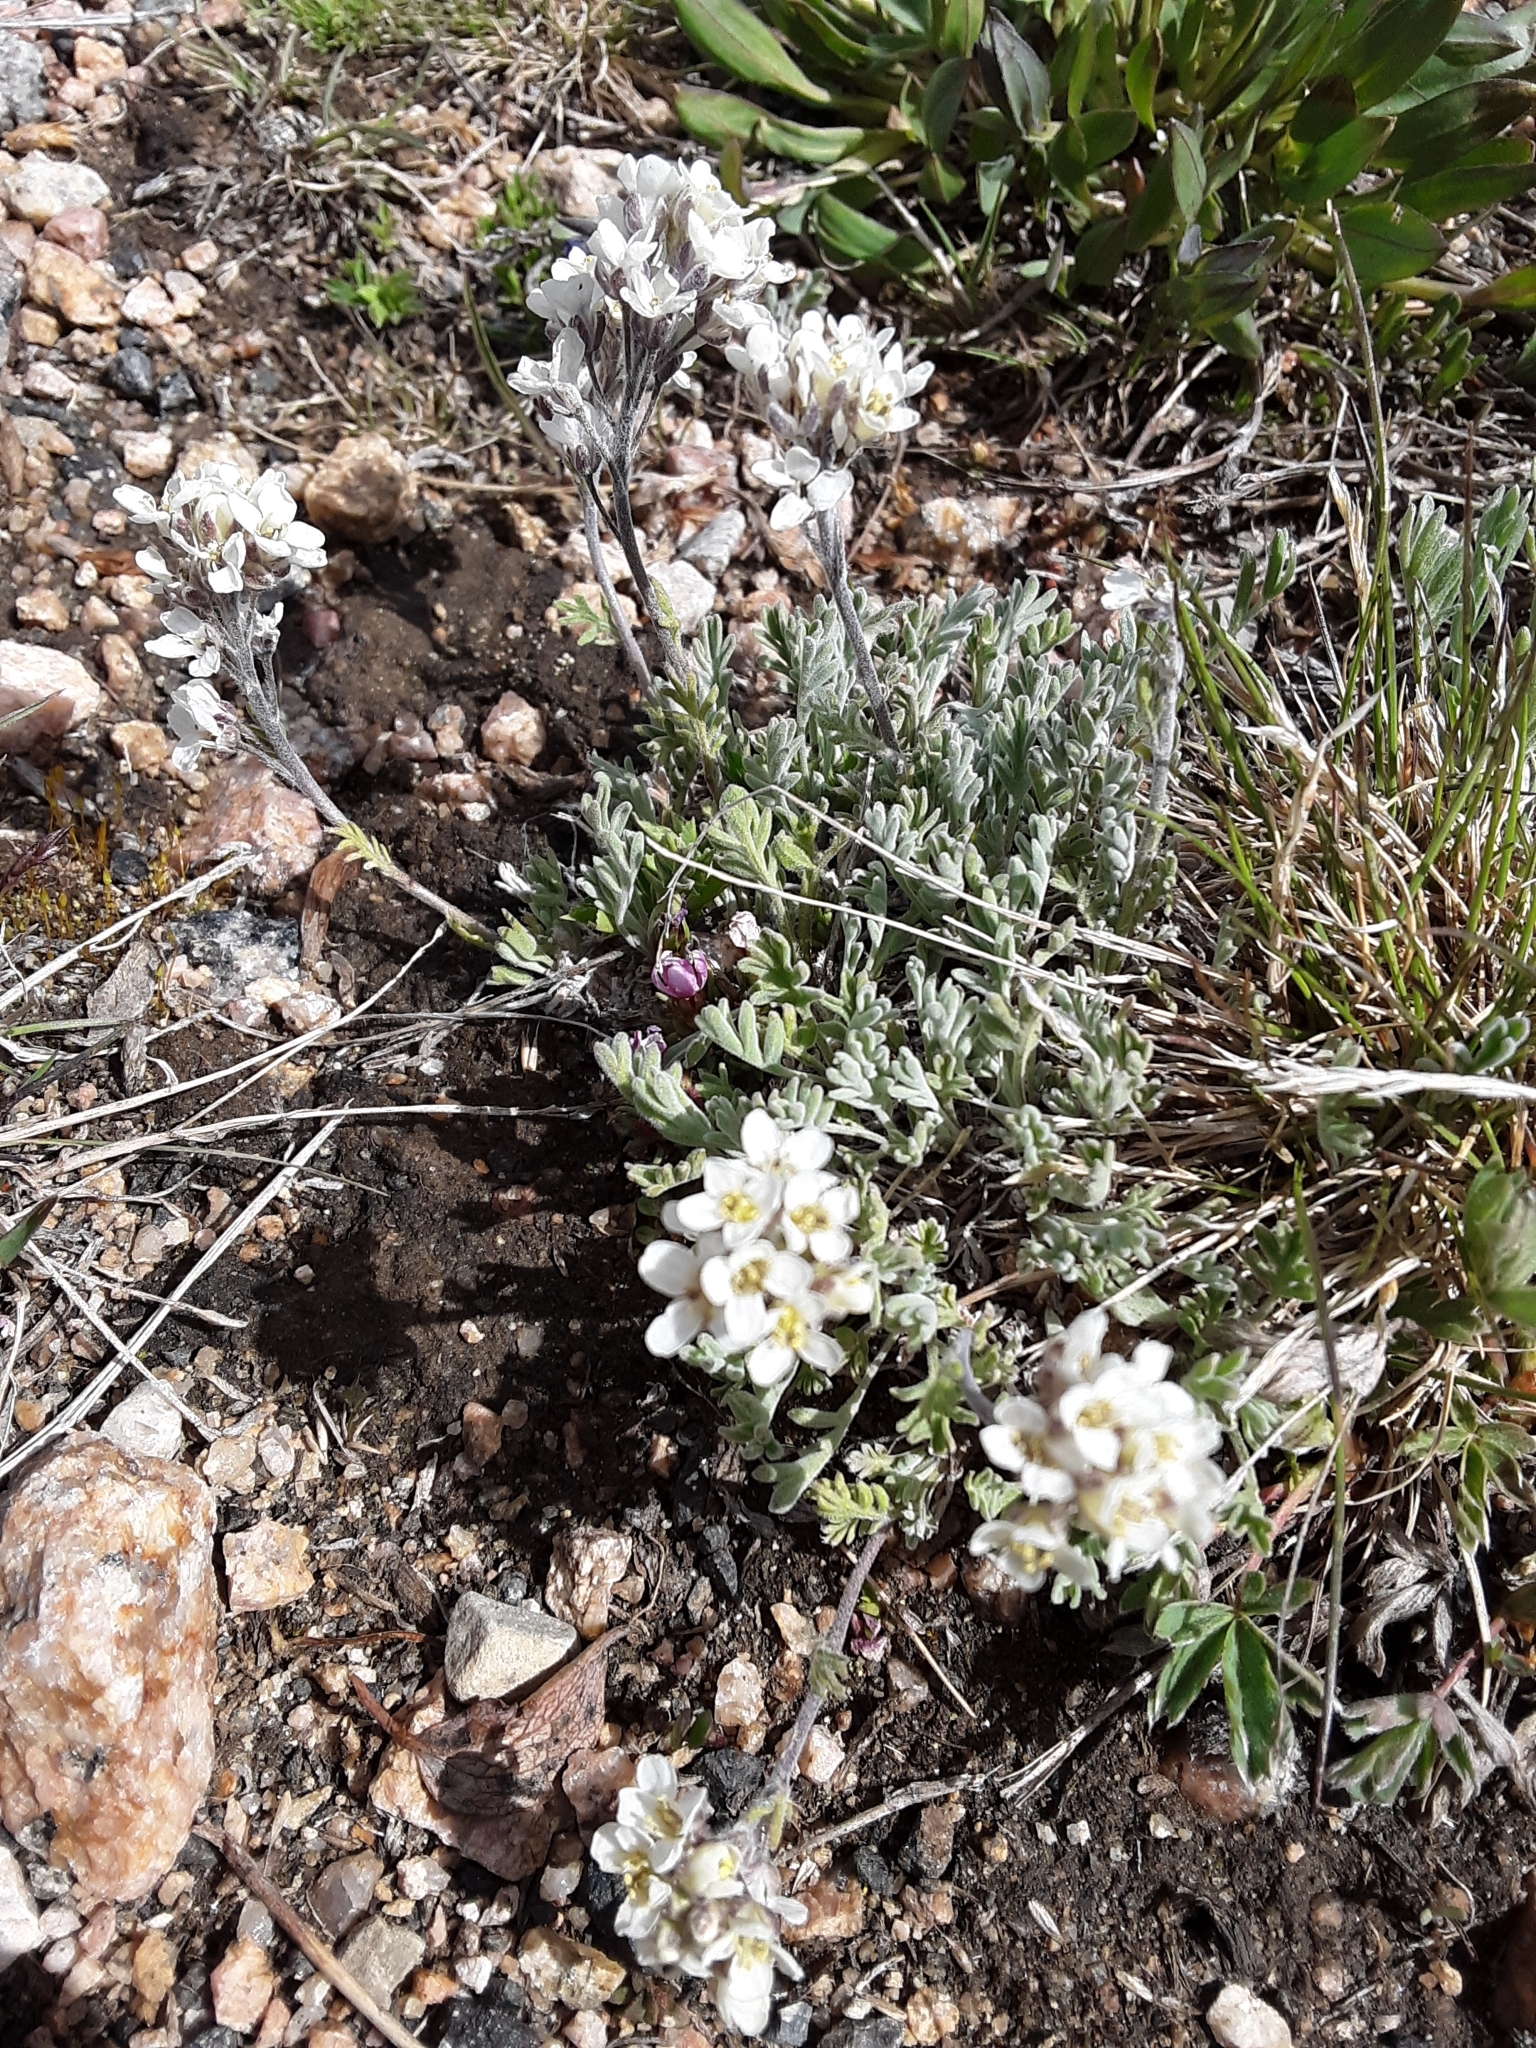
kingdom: Plantae
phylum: Tracheophyta
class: Magnoliopsida
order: Brassicales
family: Brassicaceae
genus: Smelowskia
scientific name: Smelowskia americana
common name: American false candytuft
